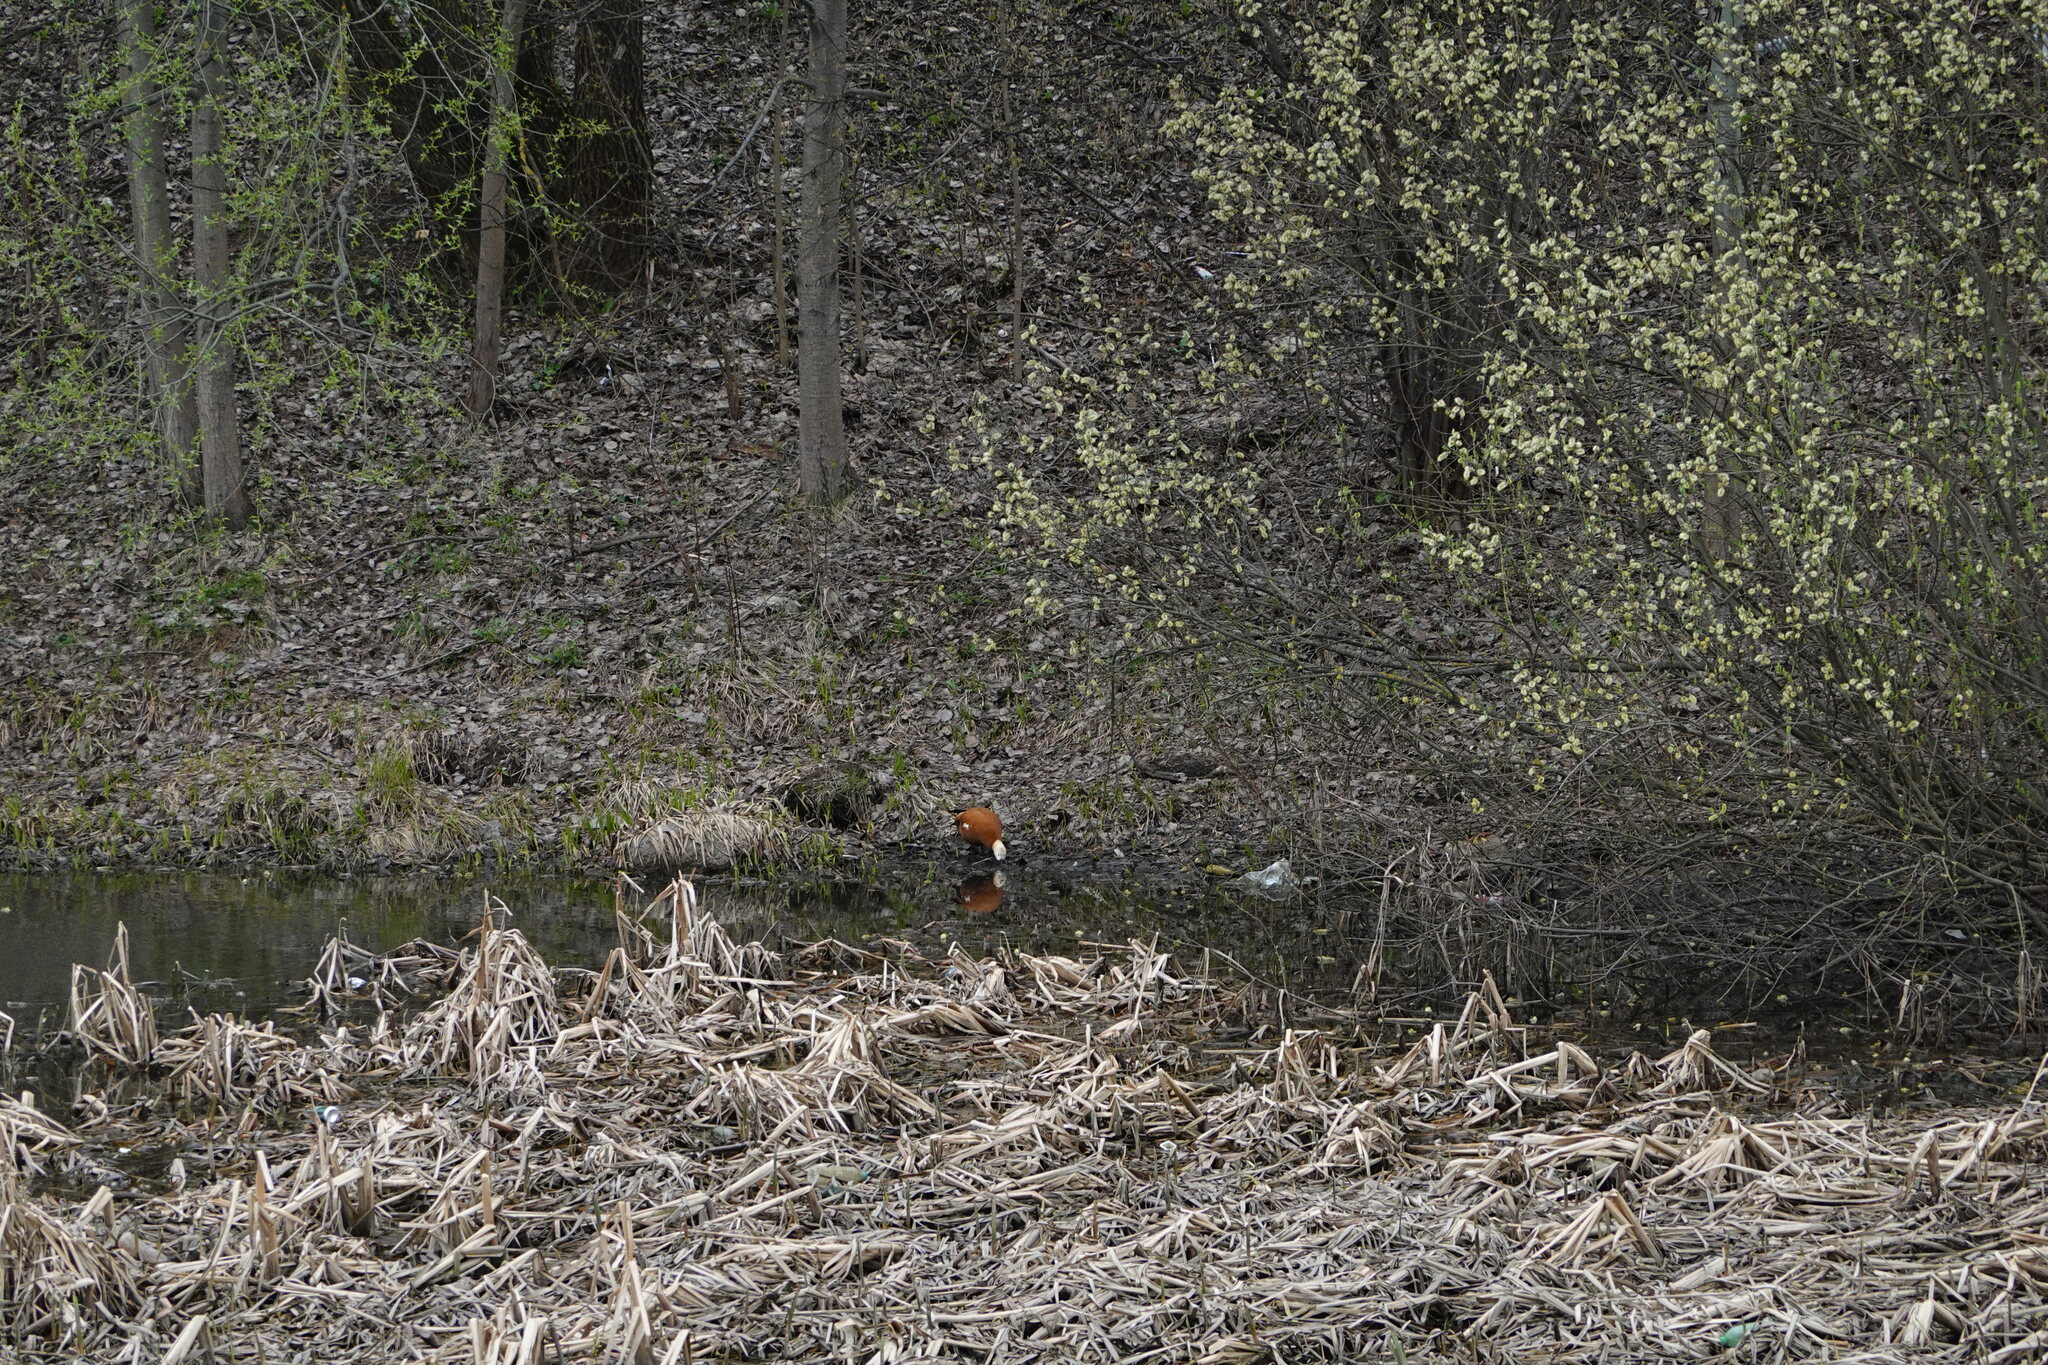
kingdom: Animalia
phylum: Chordata
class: Aves
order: Anseriformes
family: Anatidae
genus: Tadorna
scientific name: Tadorna ferruginea
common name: Ruddy shelduck
